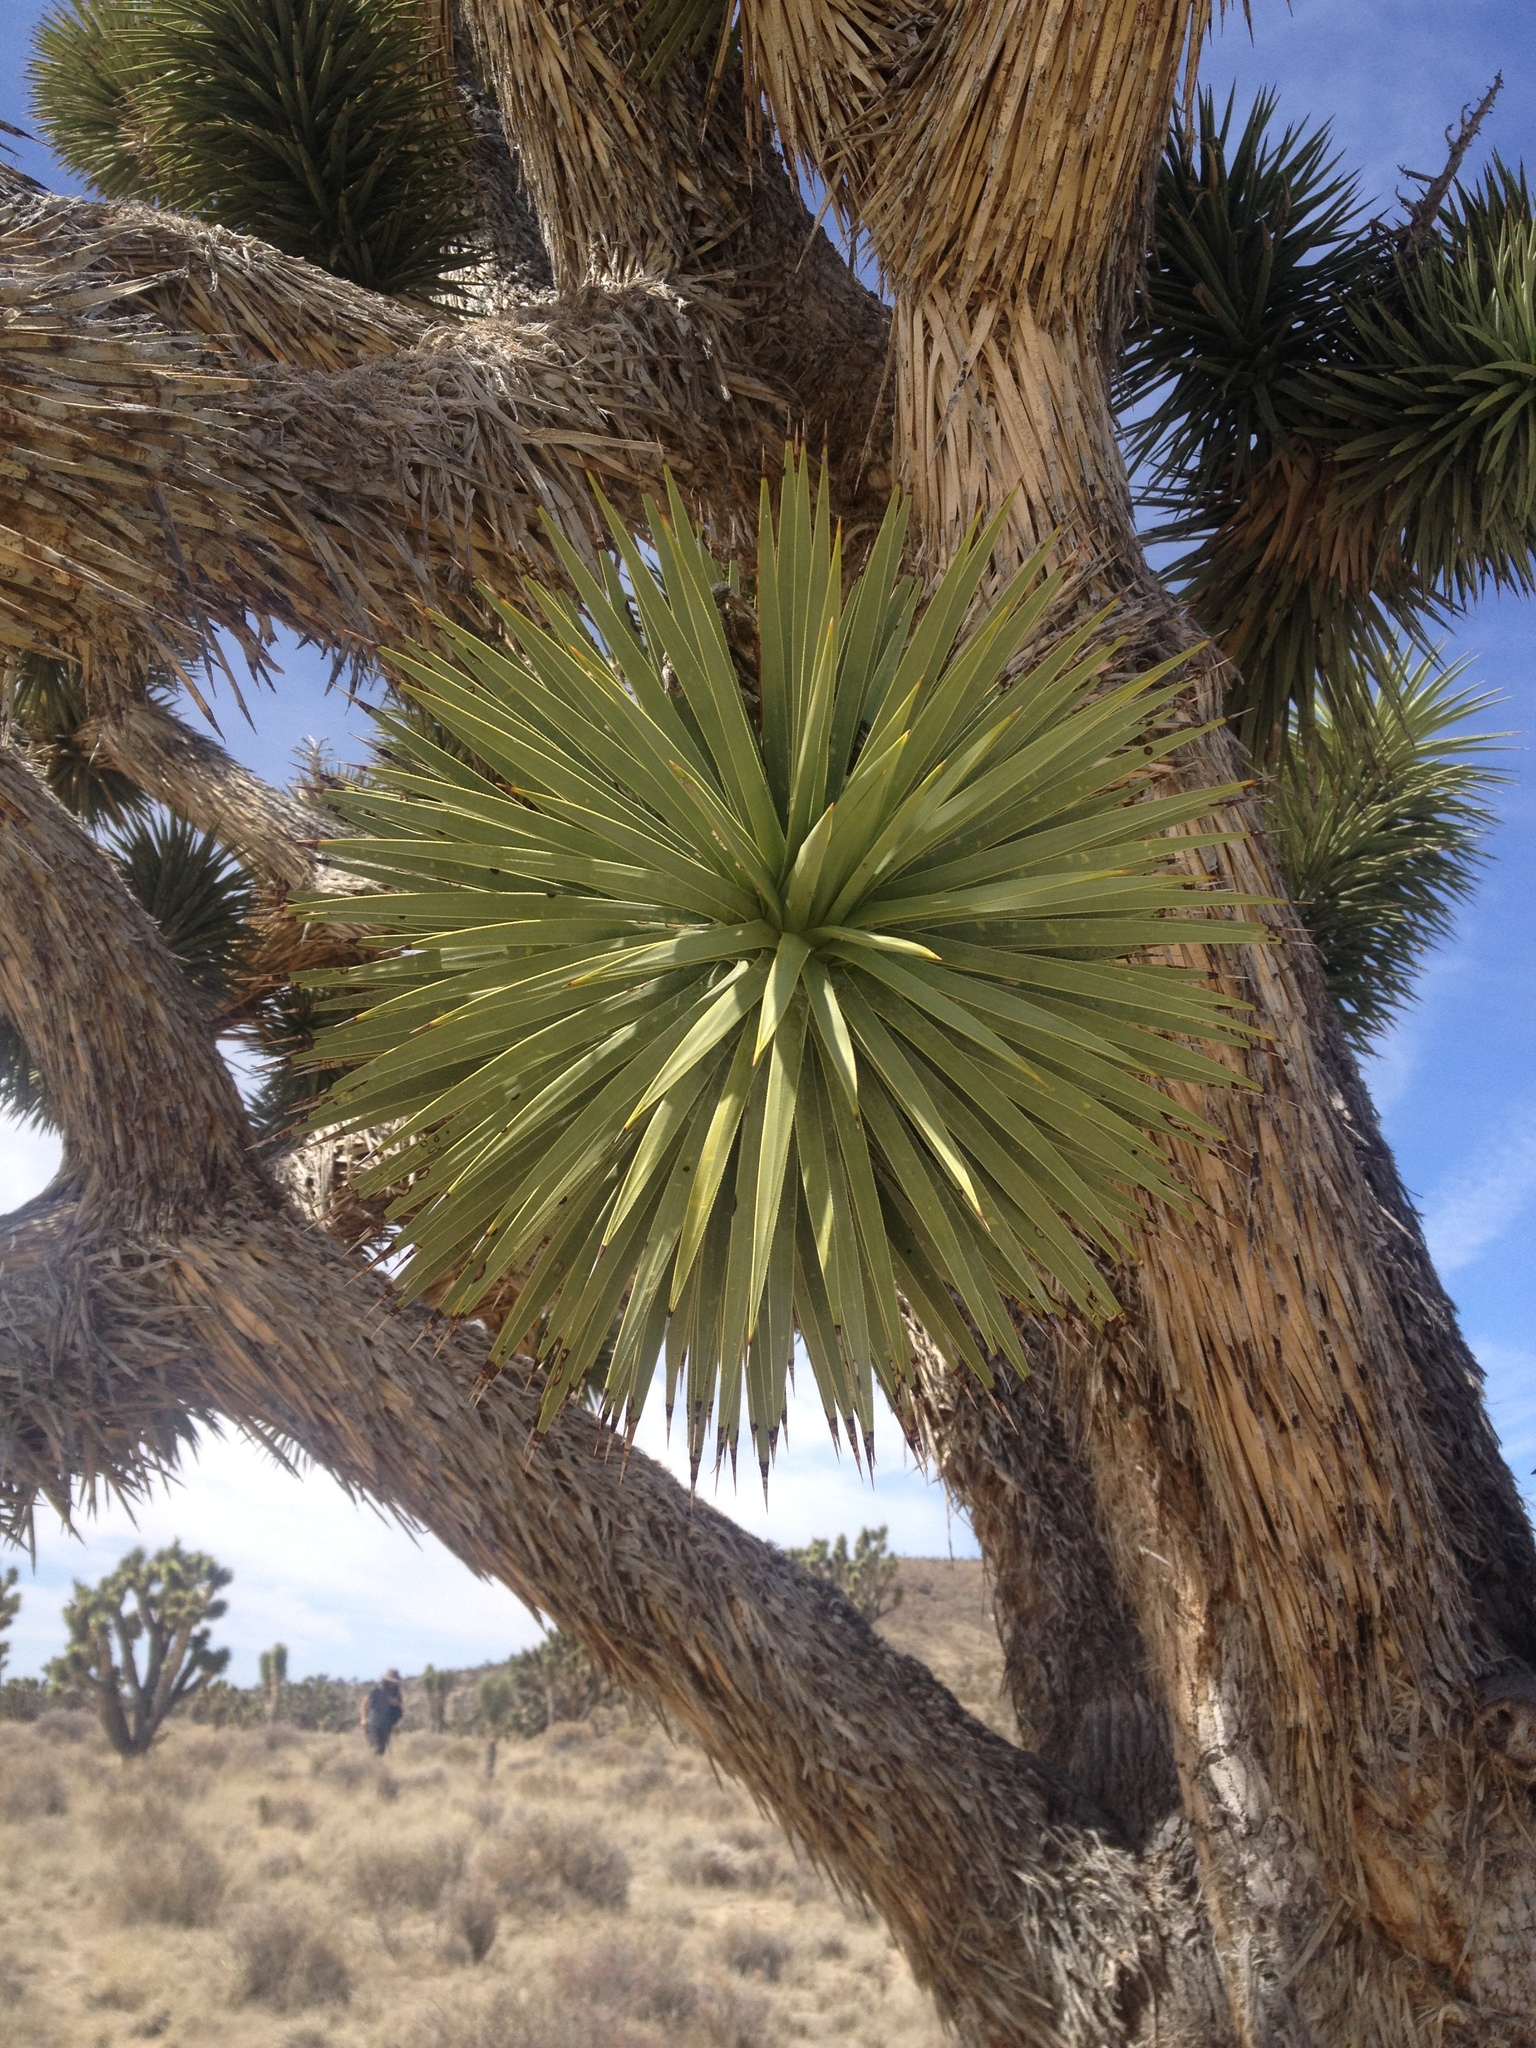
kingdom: Plantae
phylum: Tracheophyta
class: Liliopsida
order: Asparagales
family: Asparagaceae
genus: Yucca
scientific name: Yucca brevifolia
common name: Joshua tree
